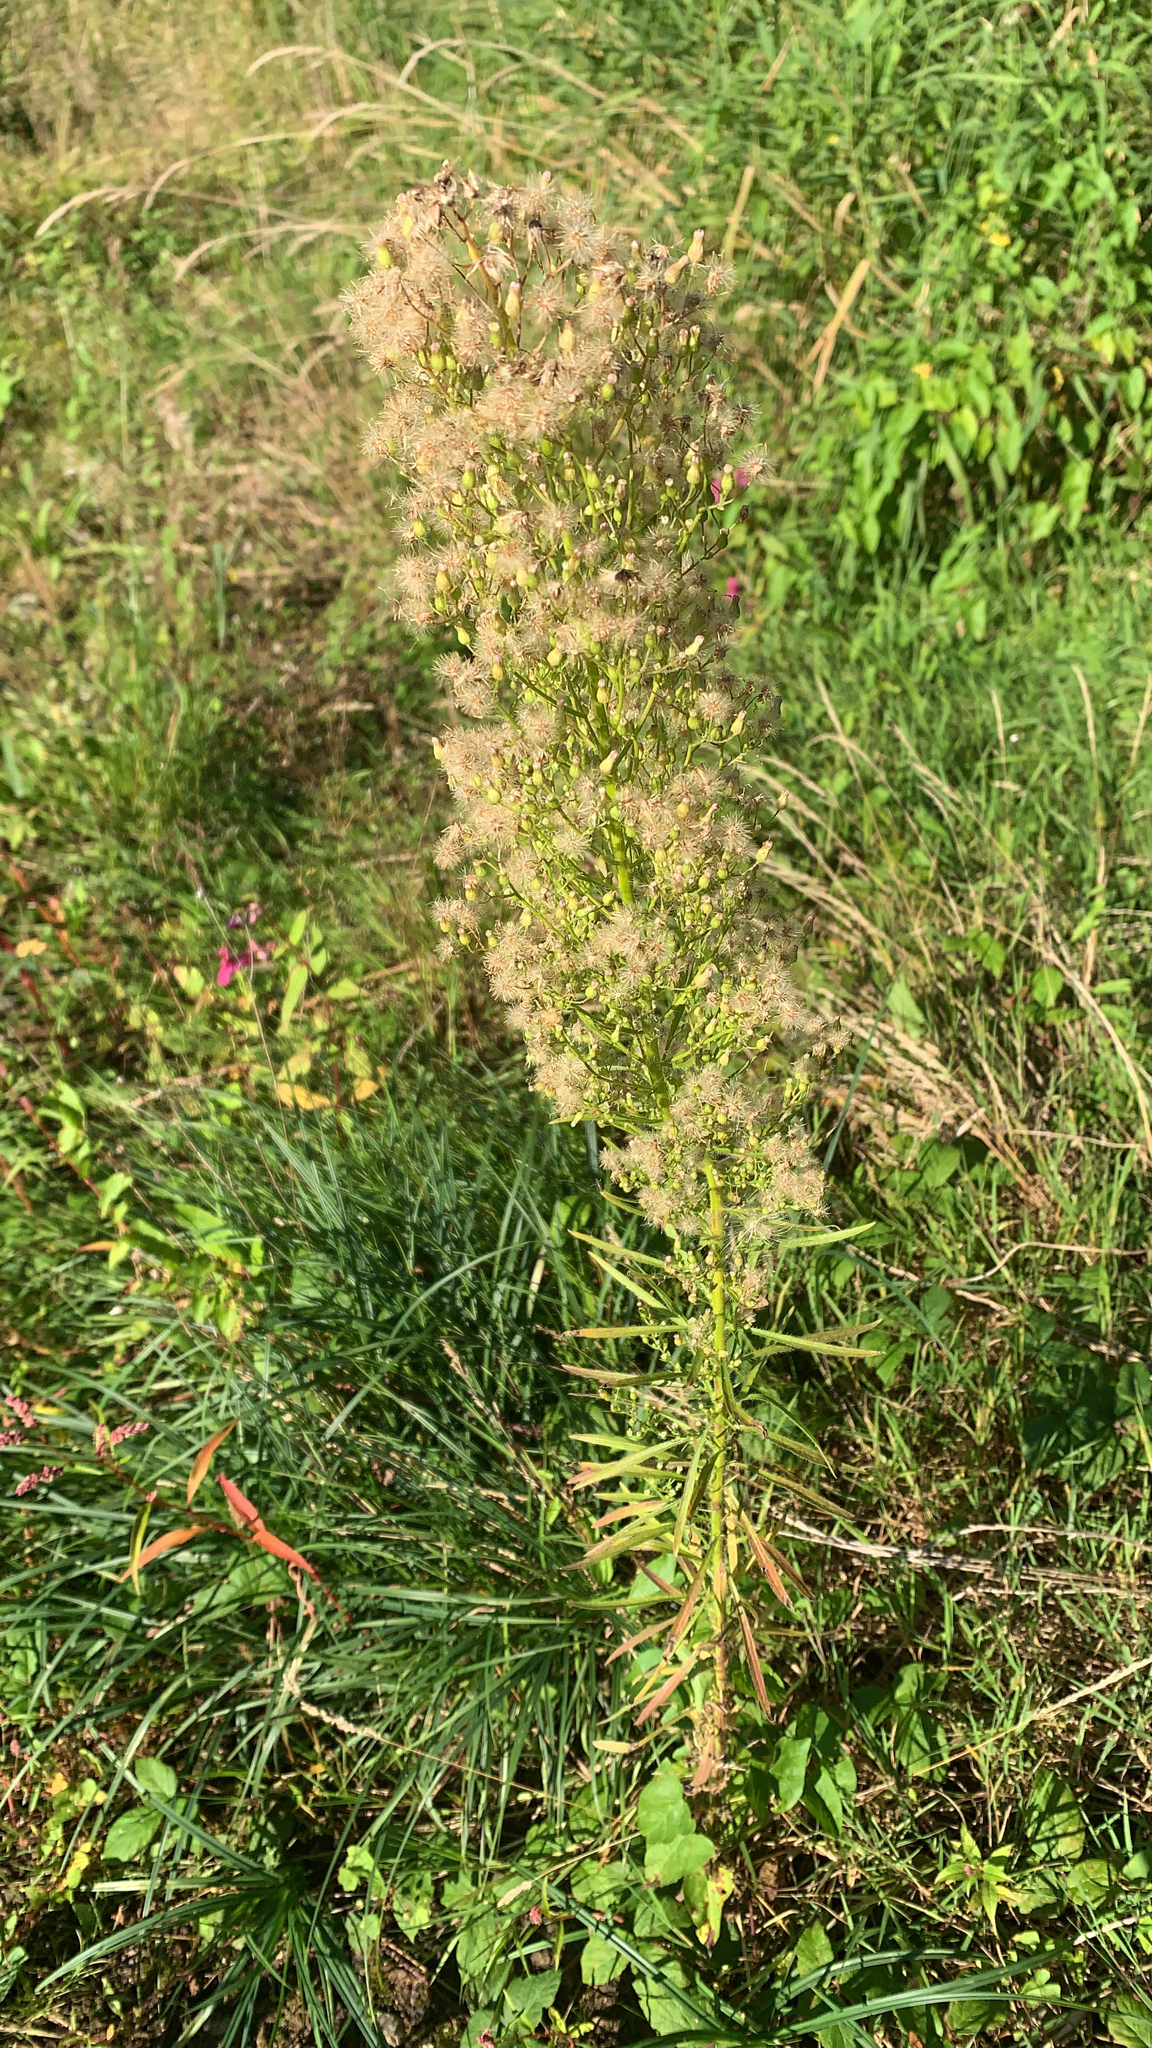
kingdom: Plantae
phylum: Tracheophyta
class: Magnoliopsida
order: Asterales
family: Asteraceae
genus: Erigeron
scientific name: Erigeron canadensis
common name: Canadian fleabane
